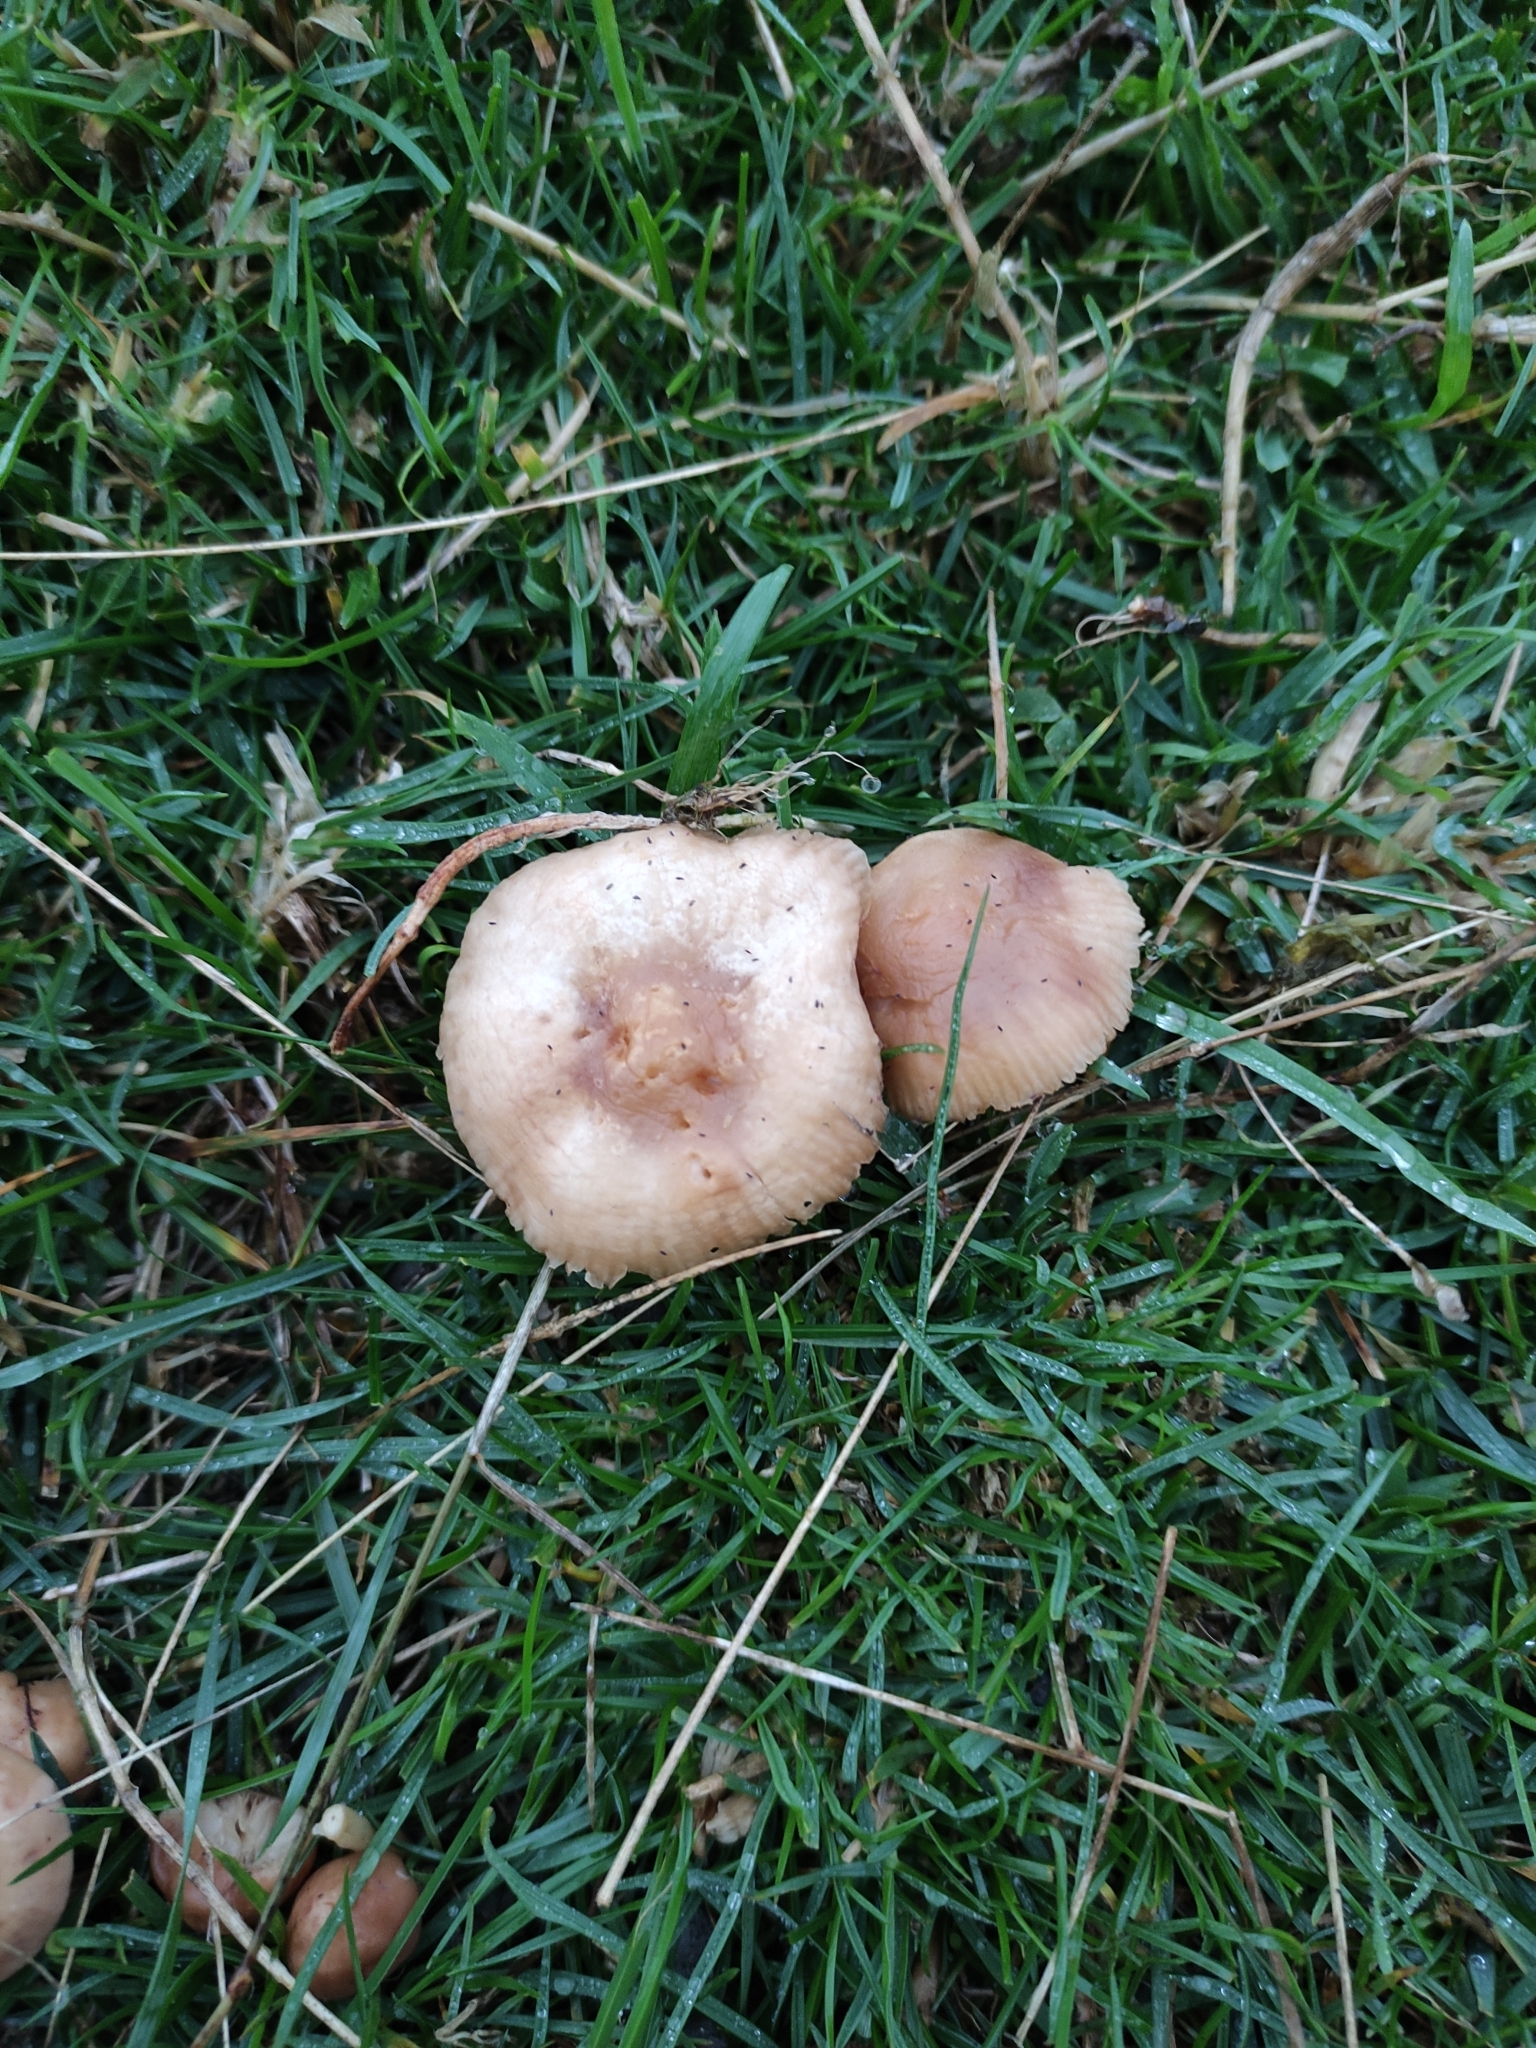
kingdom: Fungi
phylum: Basidiomycota
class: Agaricomycetes
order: Agaricales
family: Marasmiaceae
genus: Marasmius
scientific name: Marasmius oreades
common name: Fairy ring champignon
